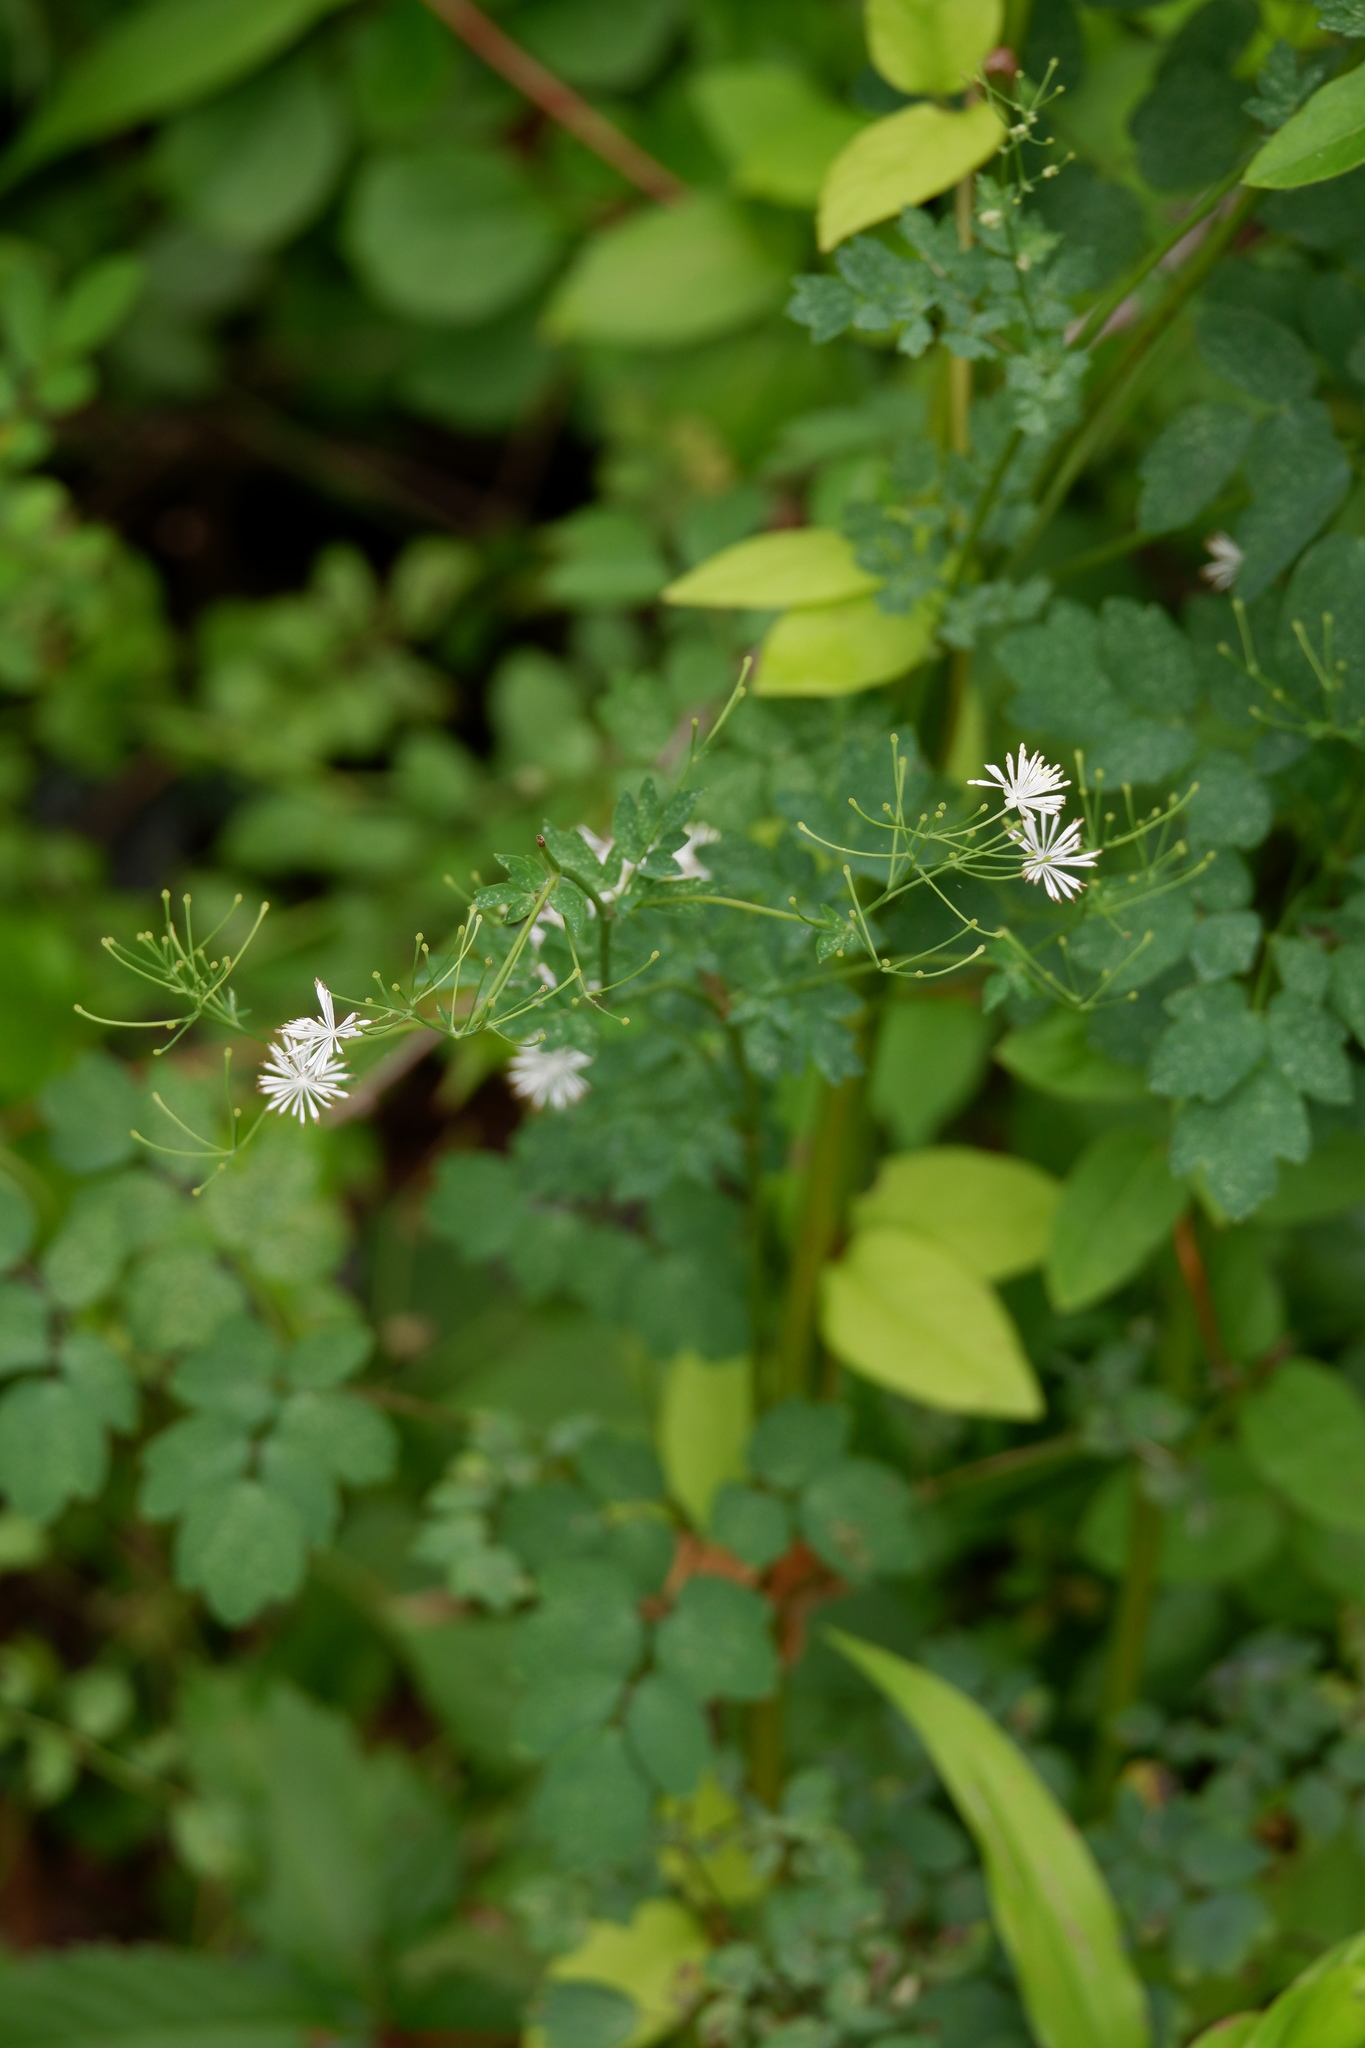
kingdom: Plantae
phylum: Tracheophyta
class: Magnoliopsida
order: Ranunculales
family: Ranunculaceae
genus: Thalictrum
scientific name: Thalictrum pubescens
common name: King-of-the-meadow
